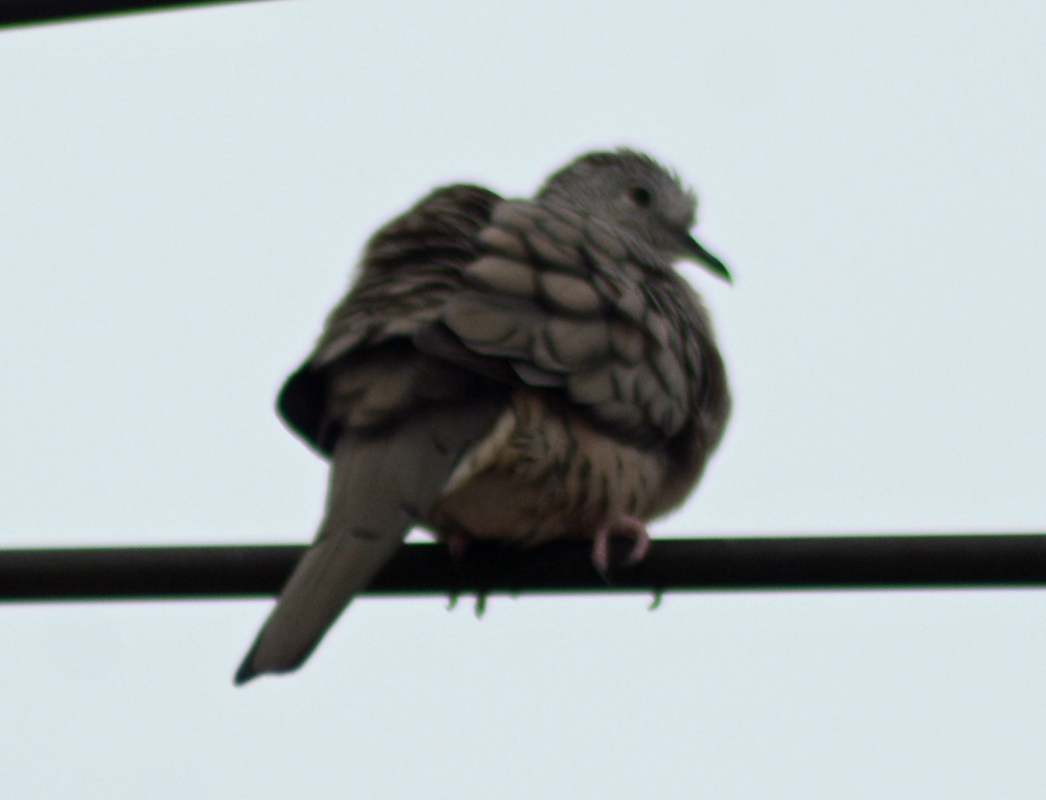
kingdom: Animalia
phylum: Chordata
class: Aves
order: Columbiformes
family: Columbidae
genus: Columbina
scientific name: Columbina inca
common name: Inca dove
